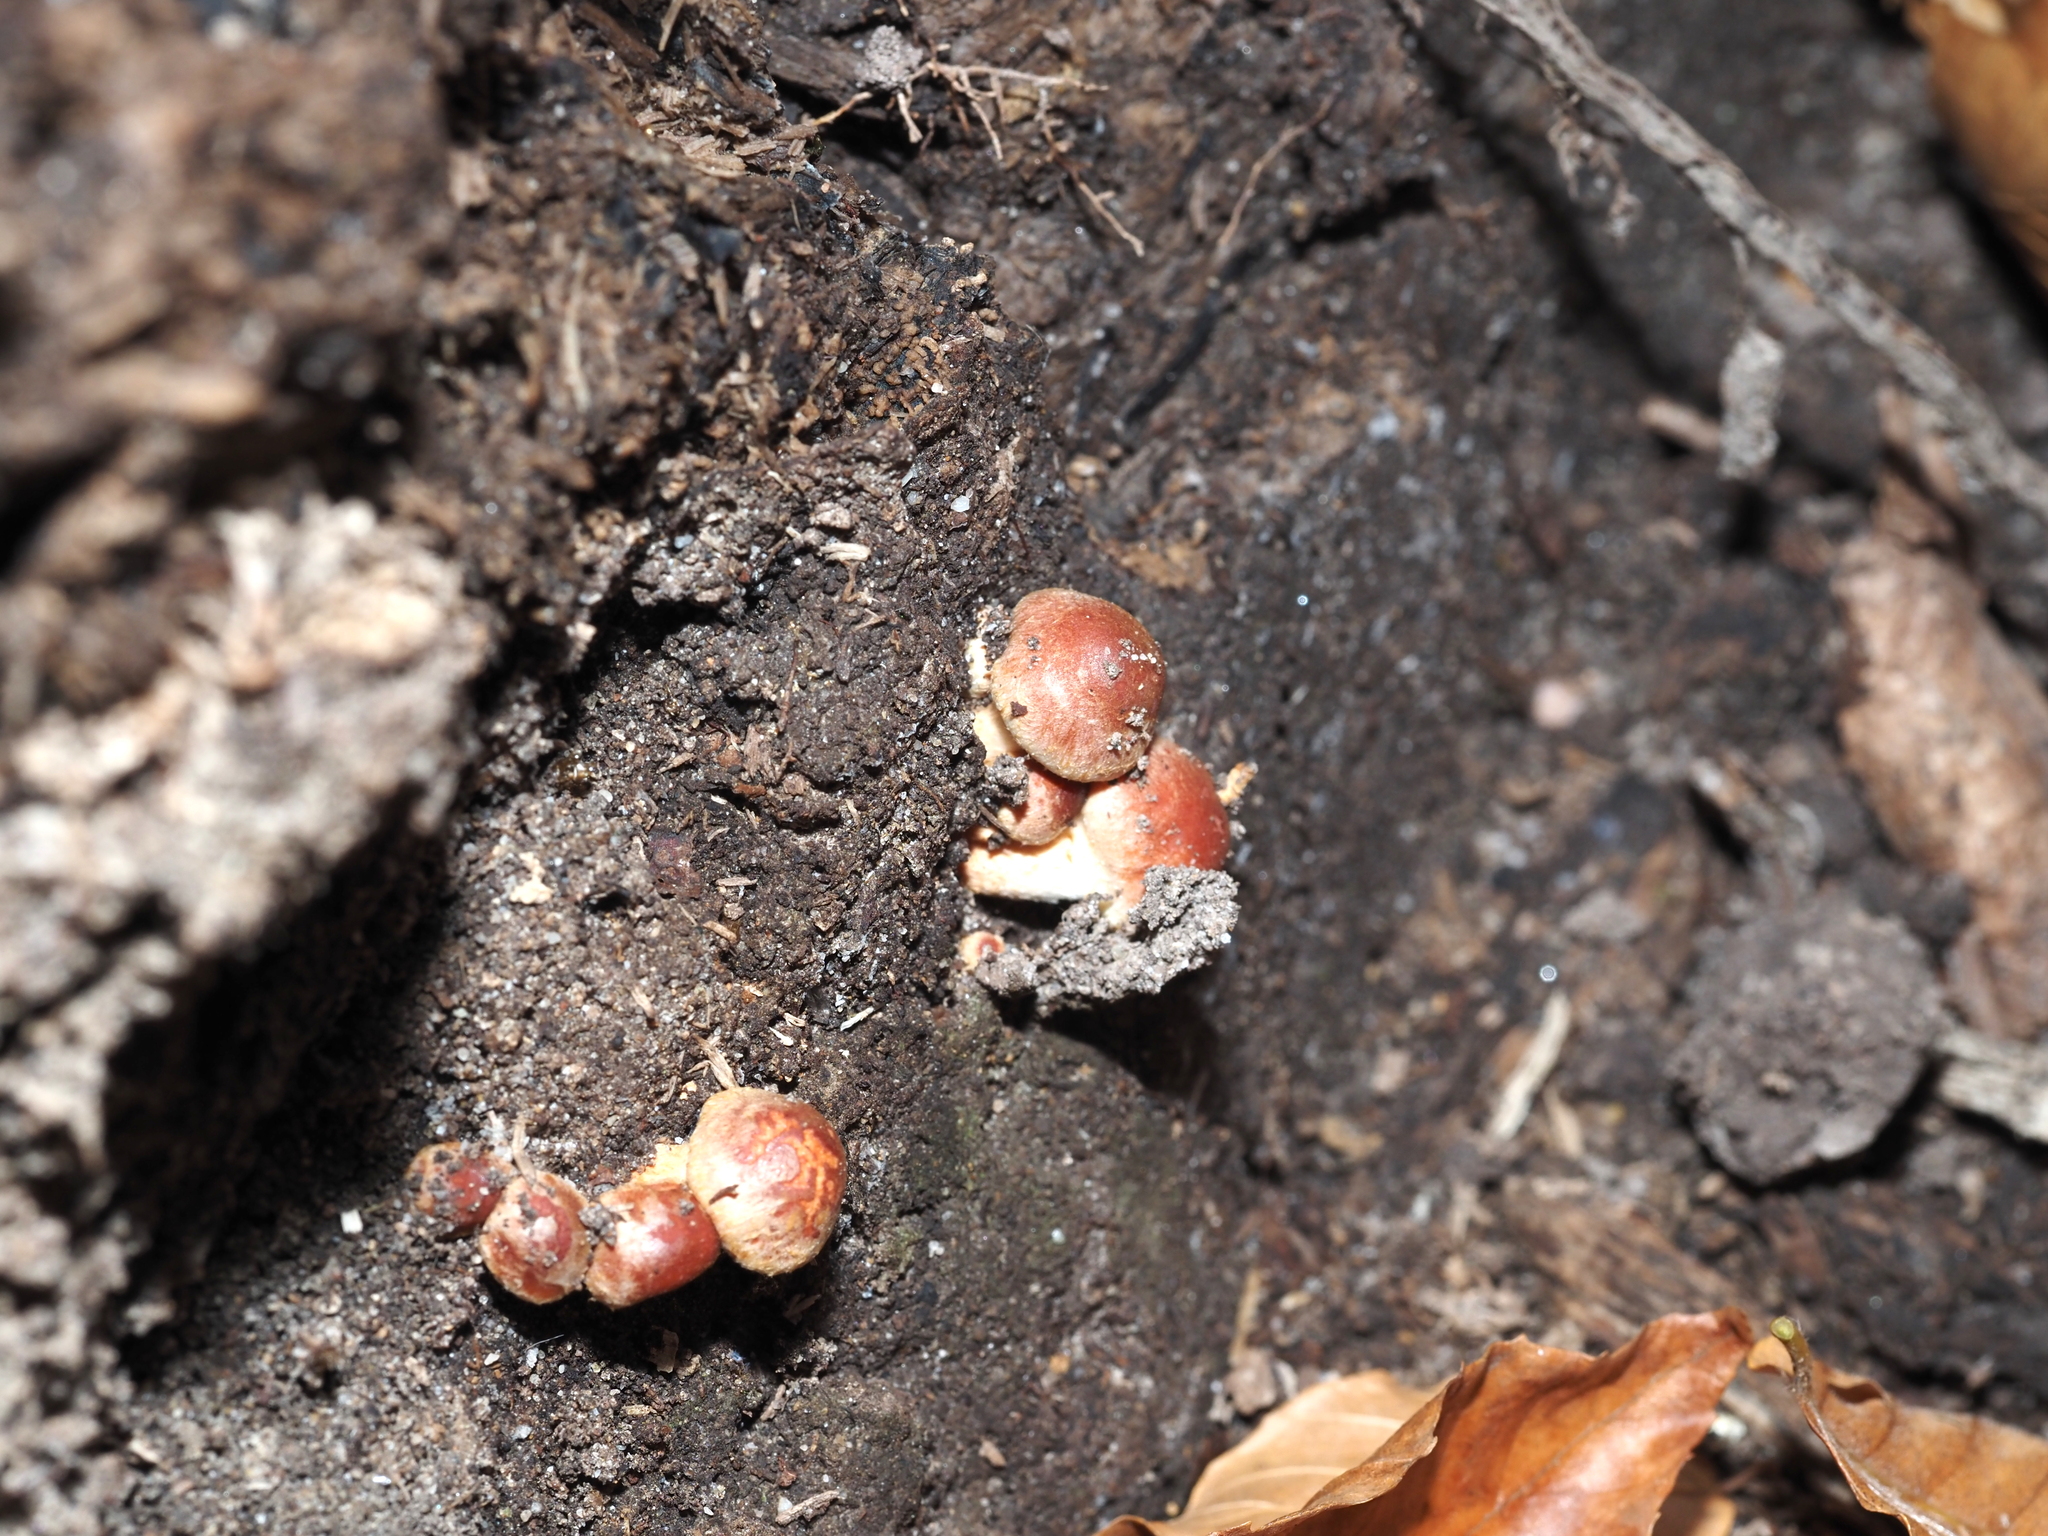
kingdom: Fungi
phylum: Basidiomycota
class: Agaricomycetes
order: Agaricales
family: Strophariaceae
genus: Hypholoma
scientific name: Hypholoma lateritium
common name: Brick caps
